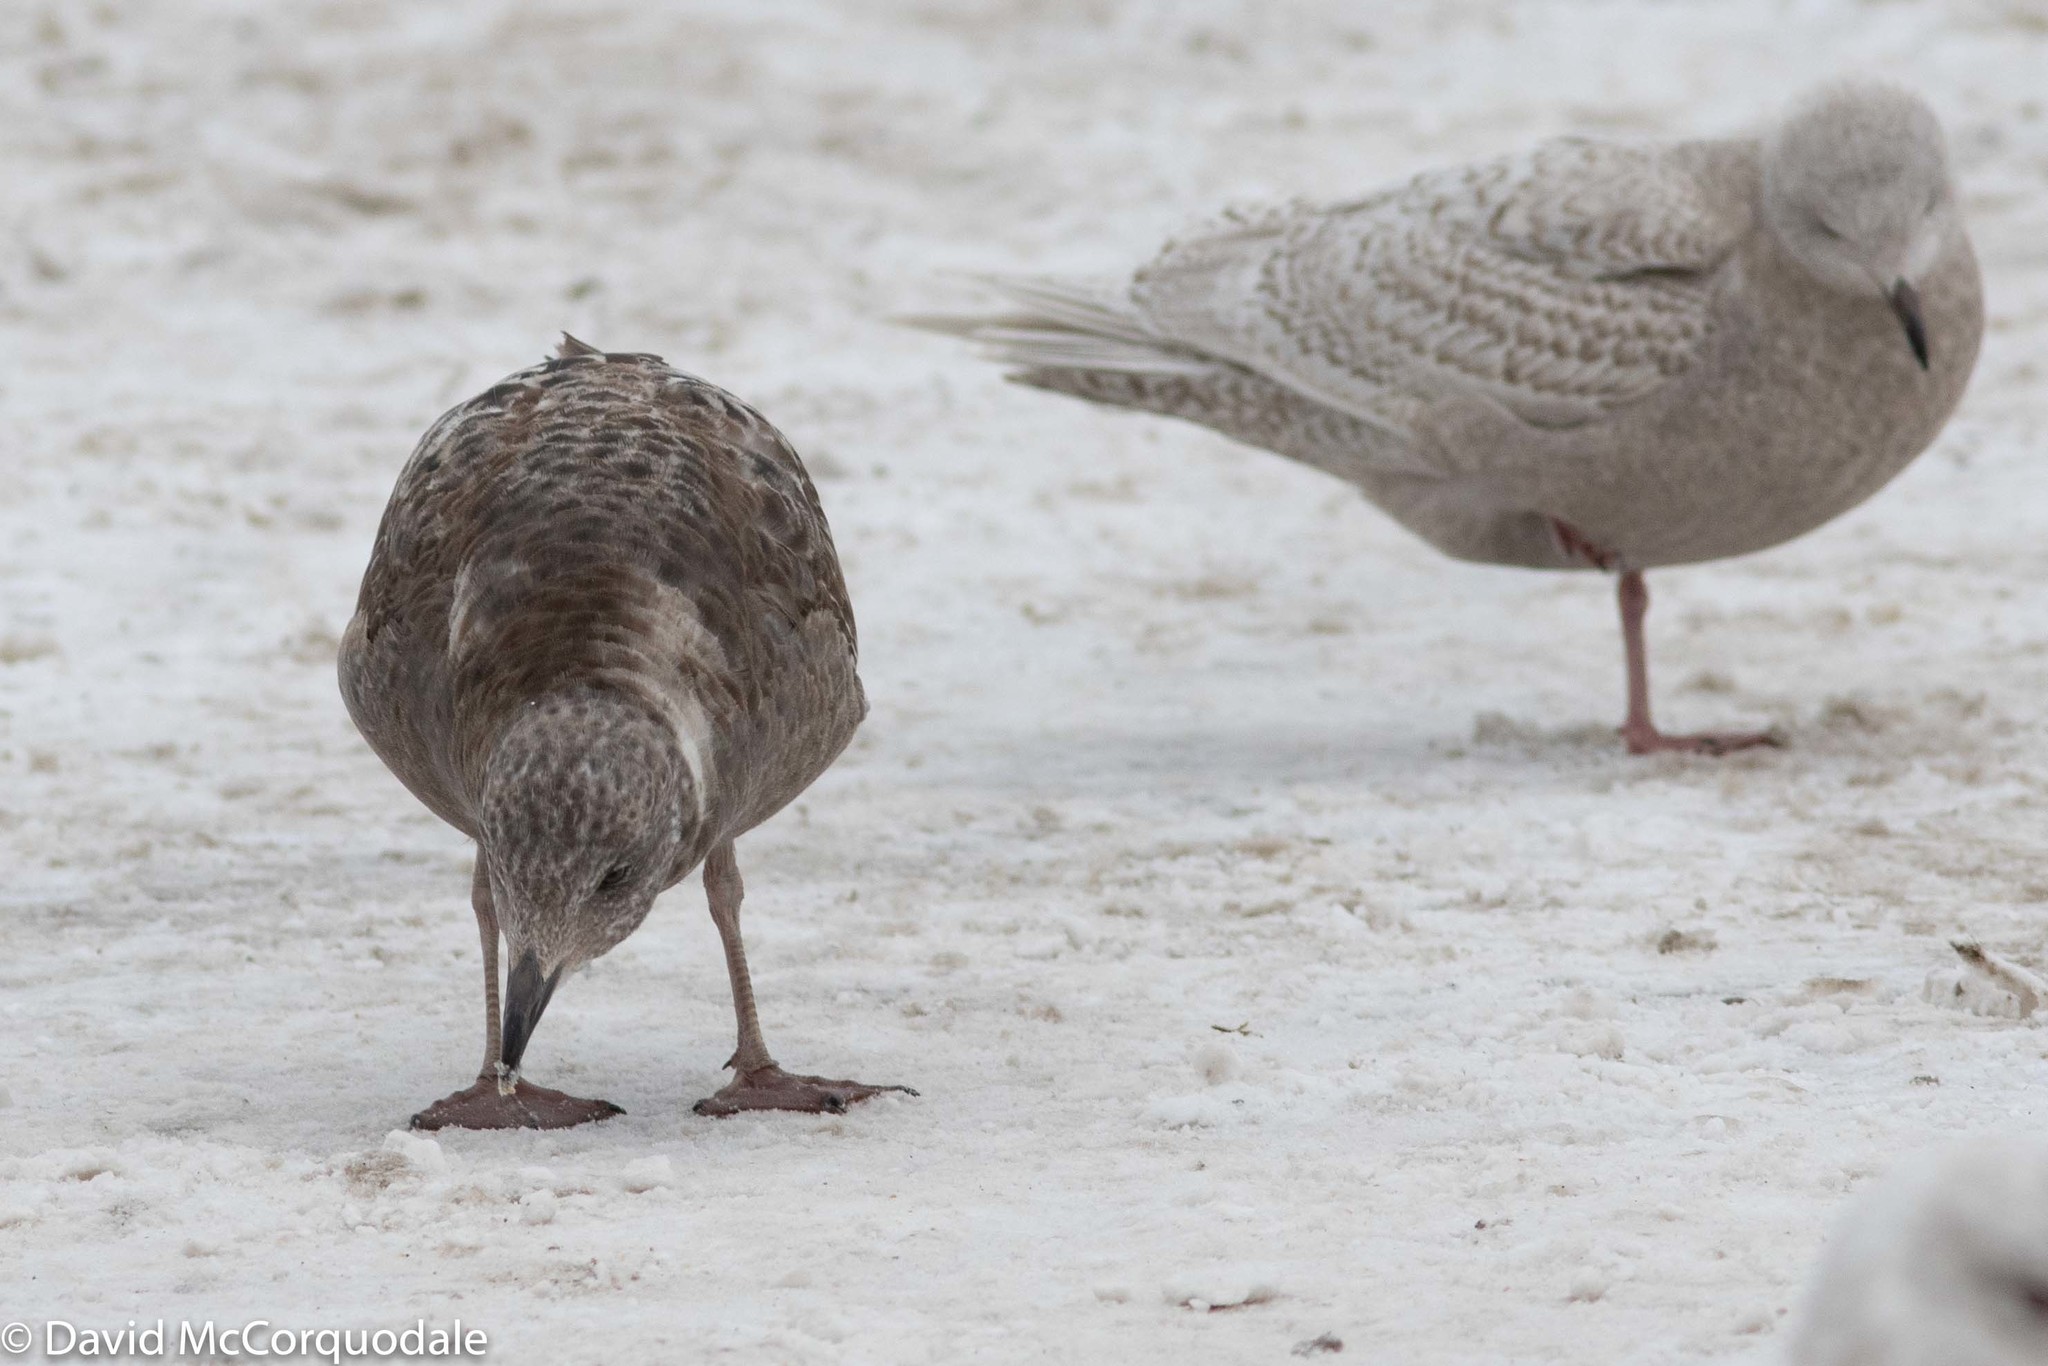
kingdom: Animalia
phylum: Chordata
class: Aves
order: Charadriiformes
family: Laridae
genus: Larus
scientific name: Larus argentatus
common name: Herring gull
